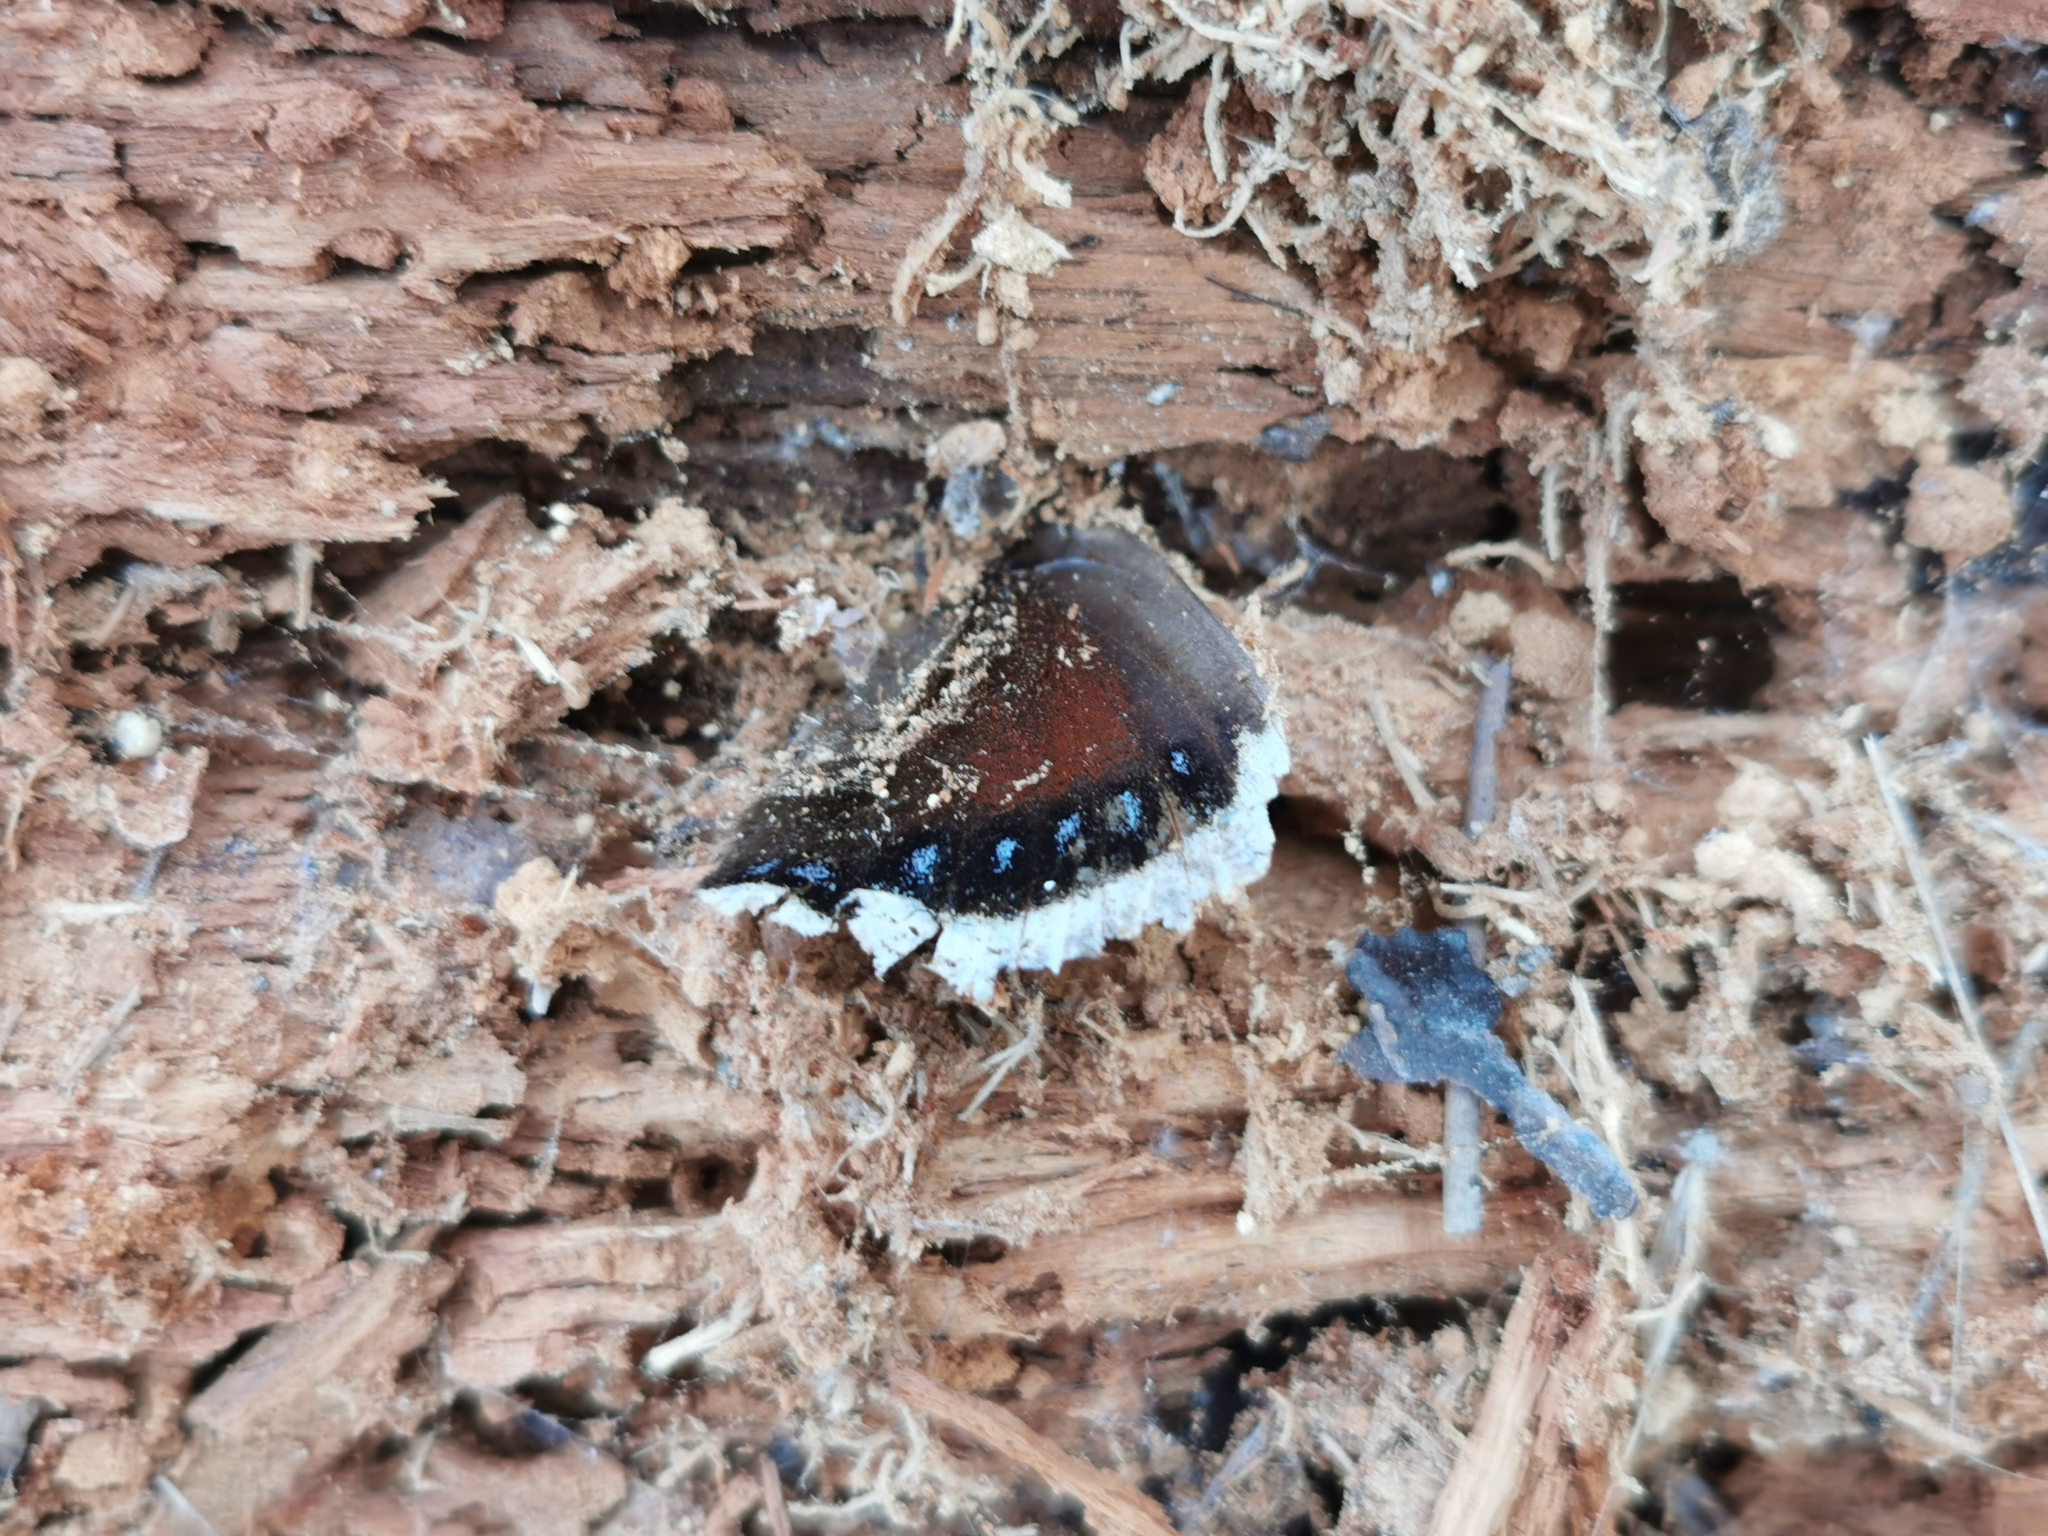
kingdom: Animalia
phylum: Arthropoda
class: Insecta
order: Lepidoptera
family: Nymphalidae
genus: Nymphalis
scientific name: Nymphalis antiopa
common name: Camberwell beauty
